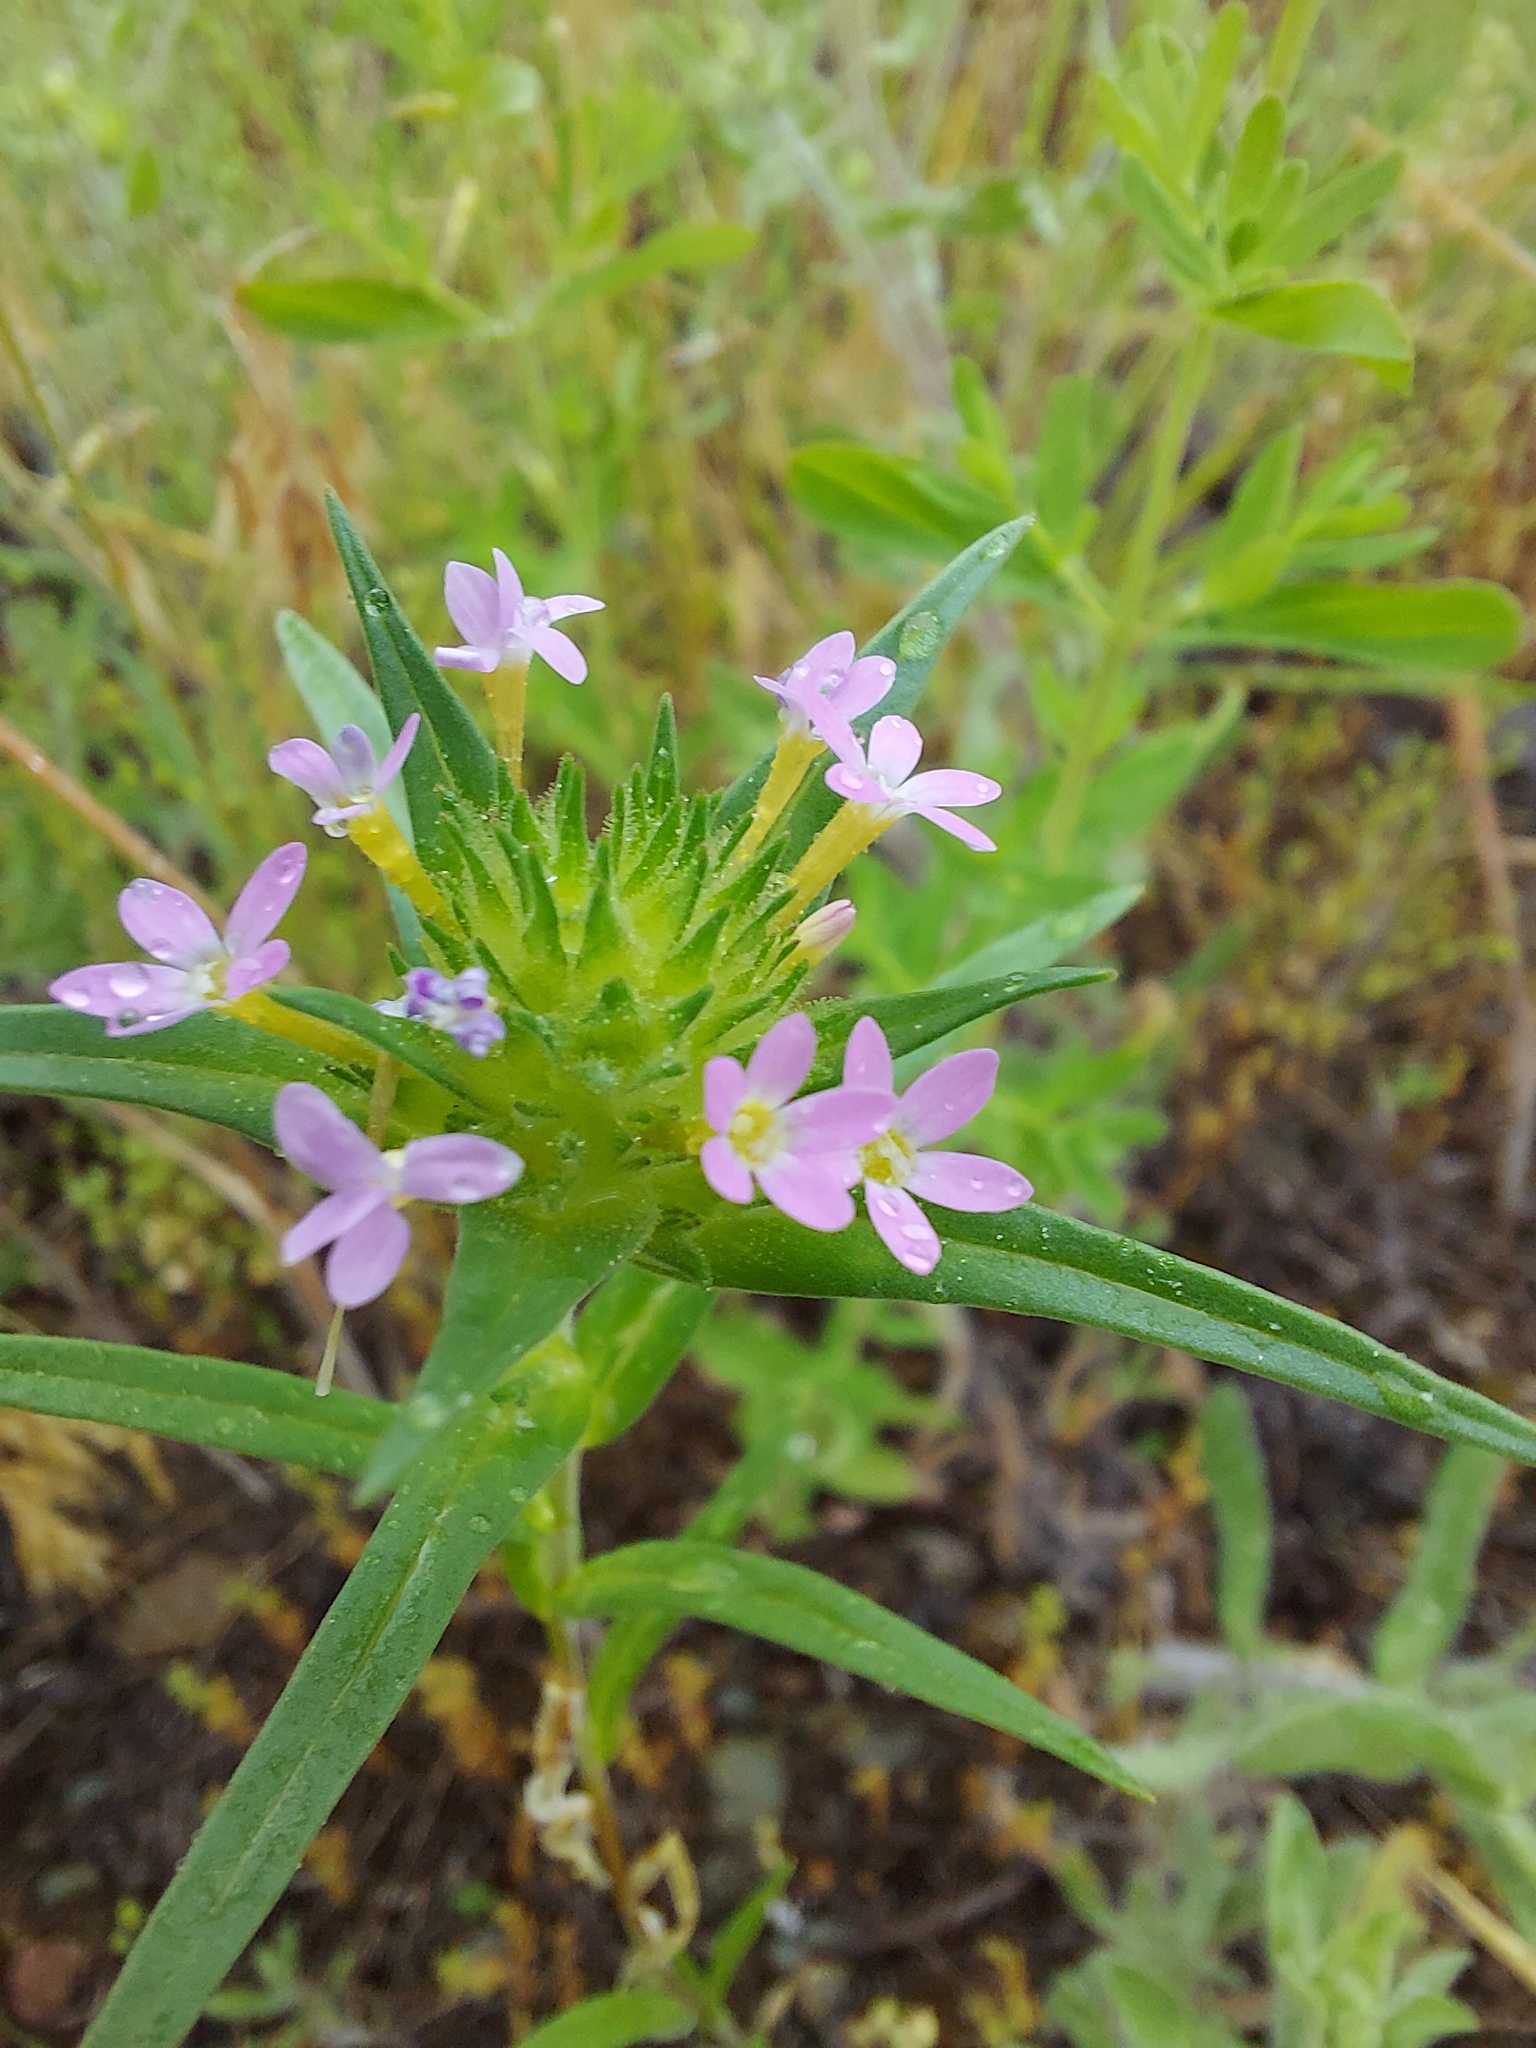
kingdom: Plantae
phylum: Tracheophyta
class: Magnoliopsida
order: Ericales
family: Polemoniaceae
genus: Collomia
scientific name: Collomia linearis
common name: Tiny trumpet
